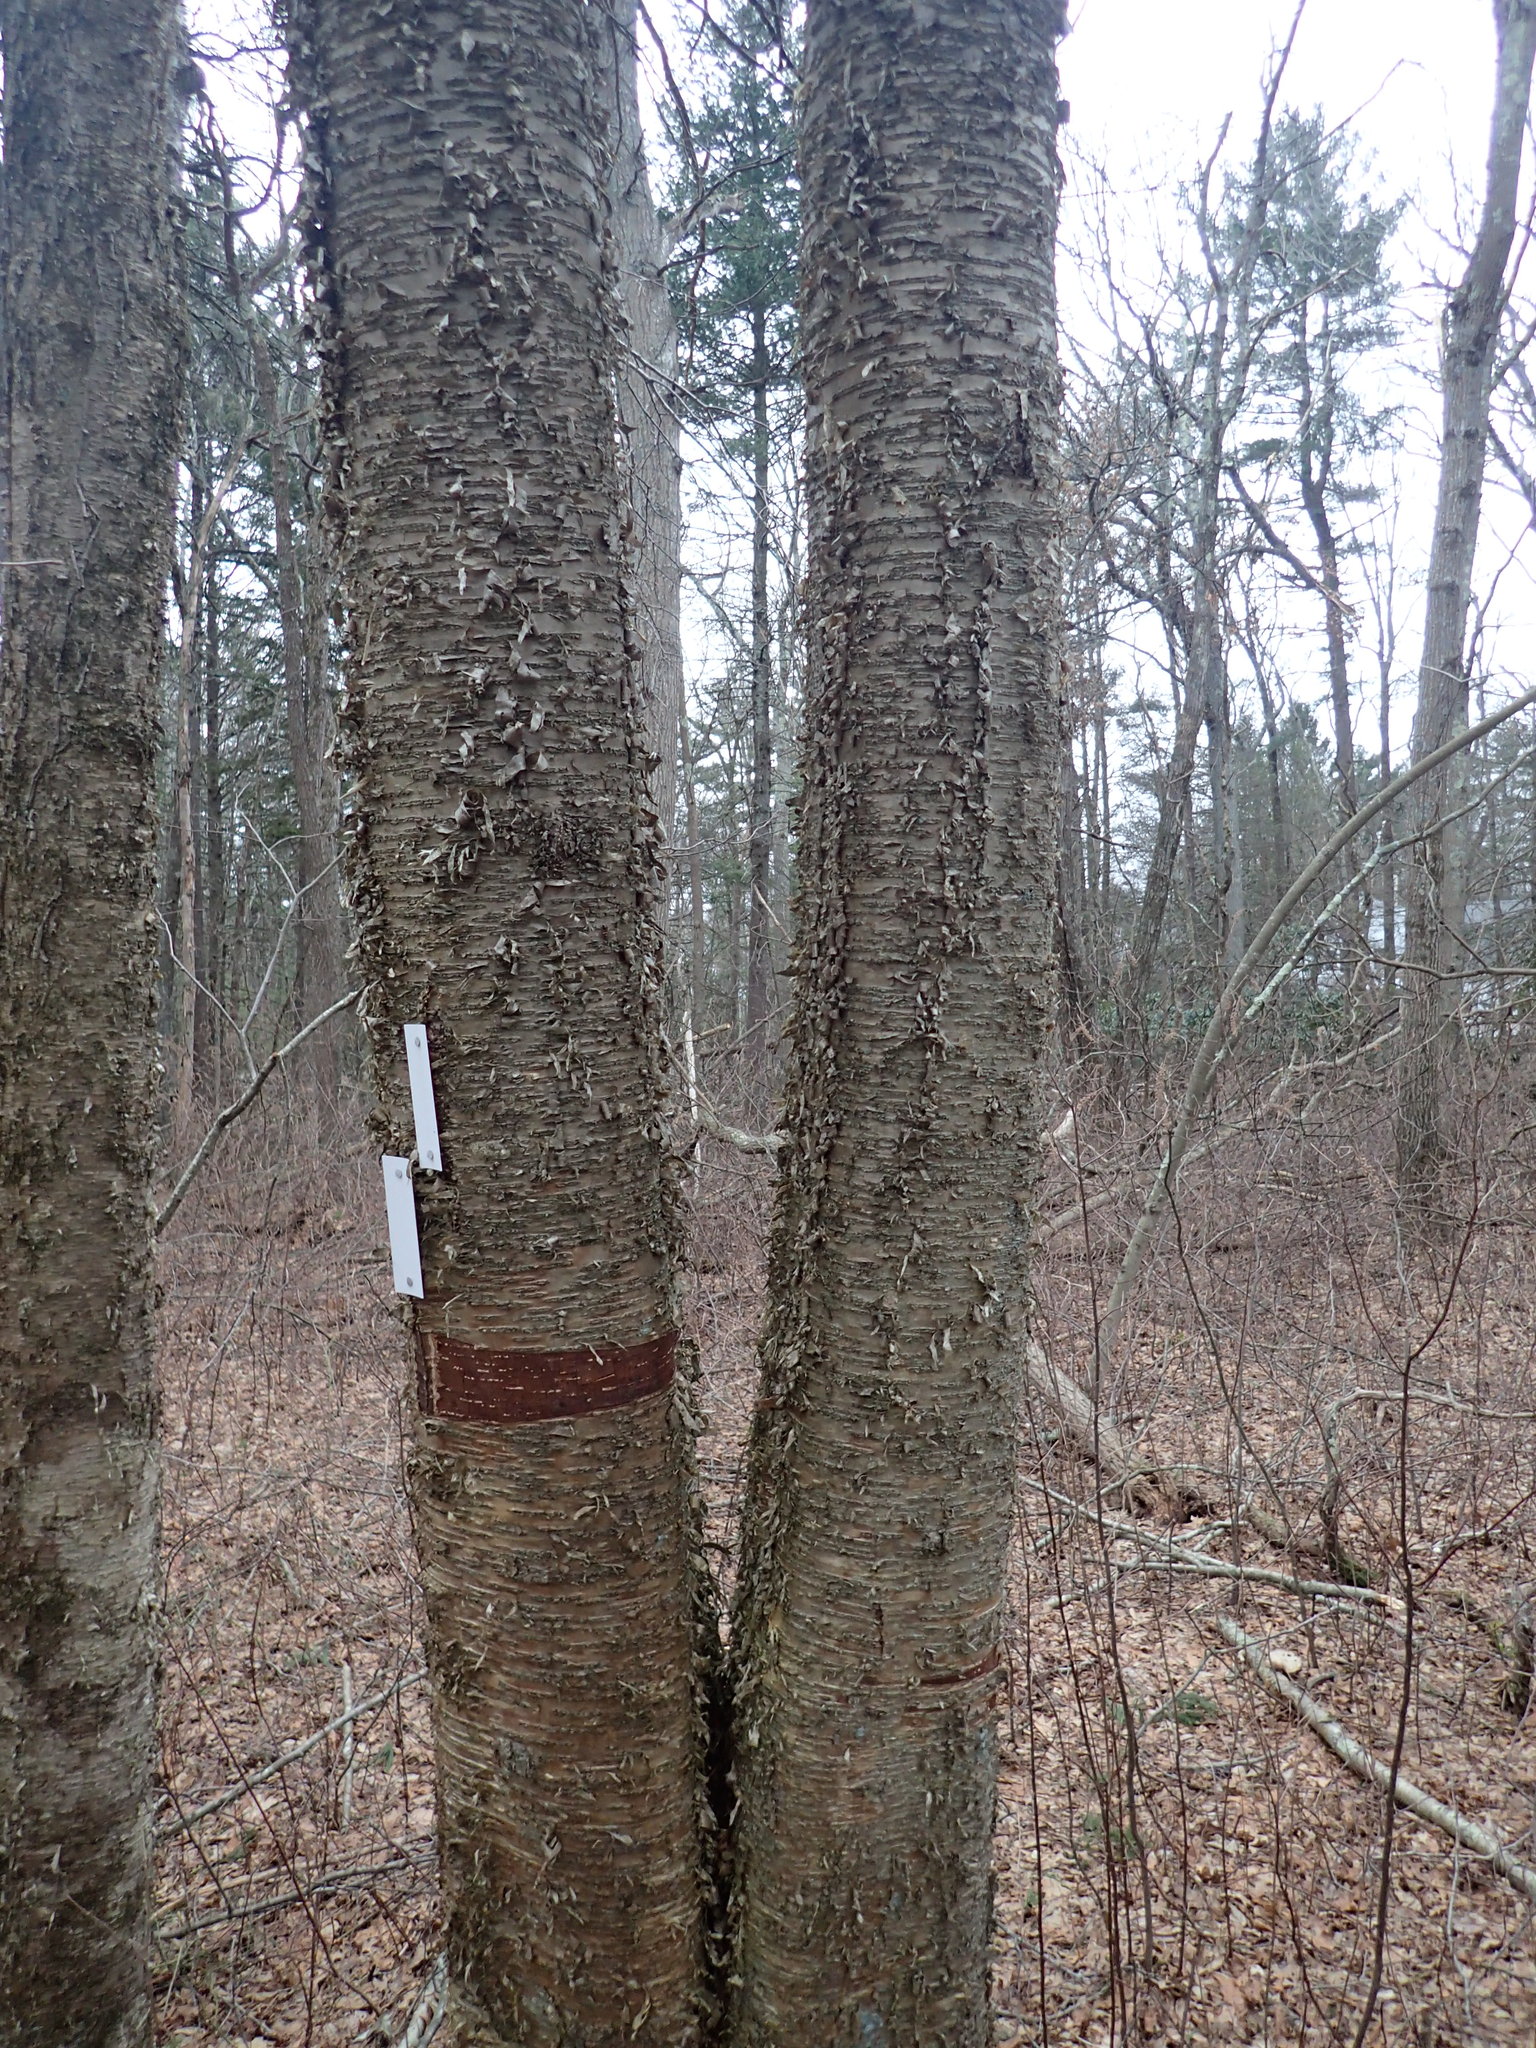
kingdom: Plantae
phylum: Tracheophyta
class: Magnoliopsida
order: Fagales
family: Betulaceae
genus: Betula
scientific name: Betula alleghaniensis
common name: Yellow birch
